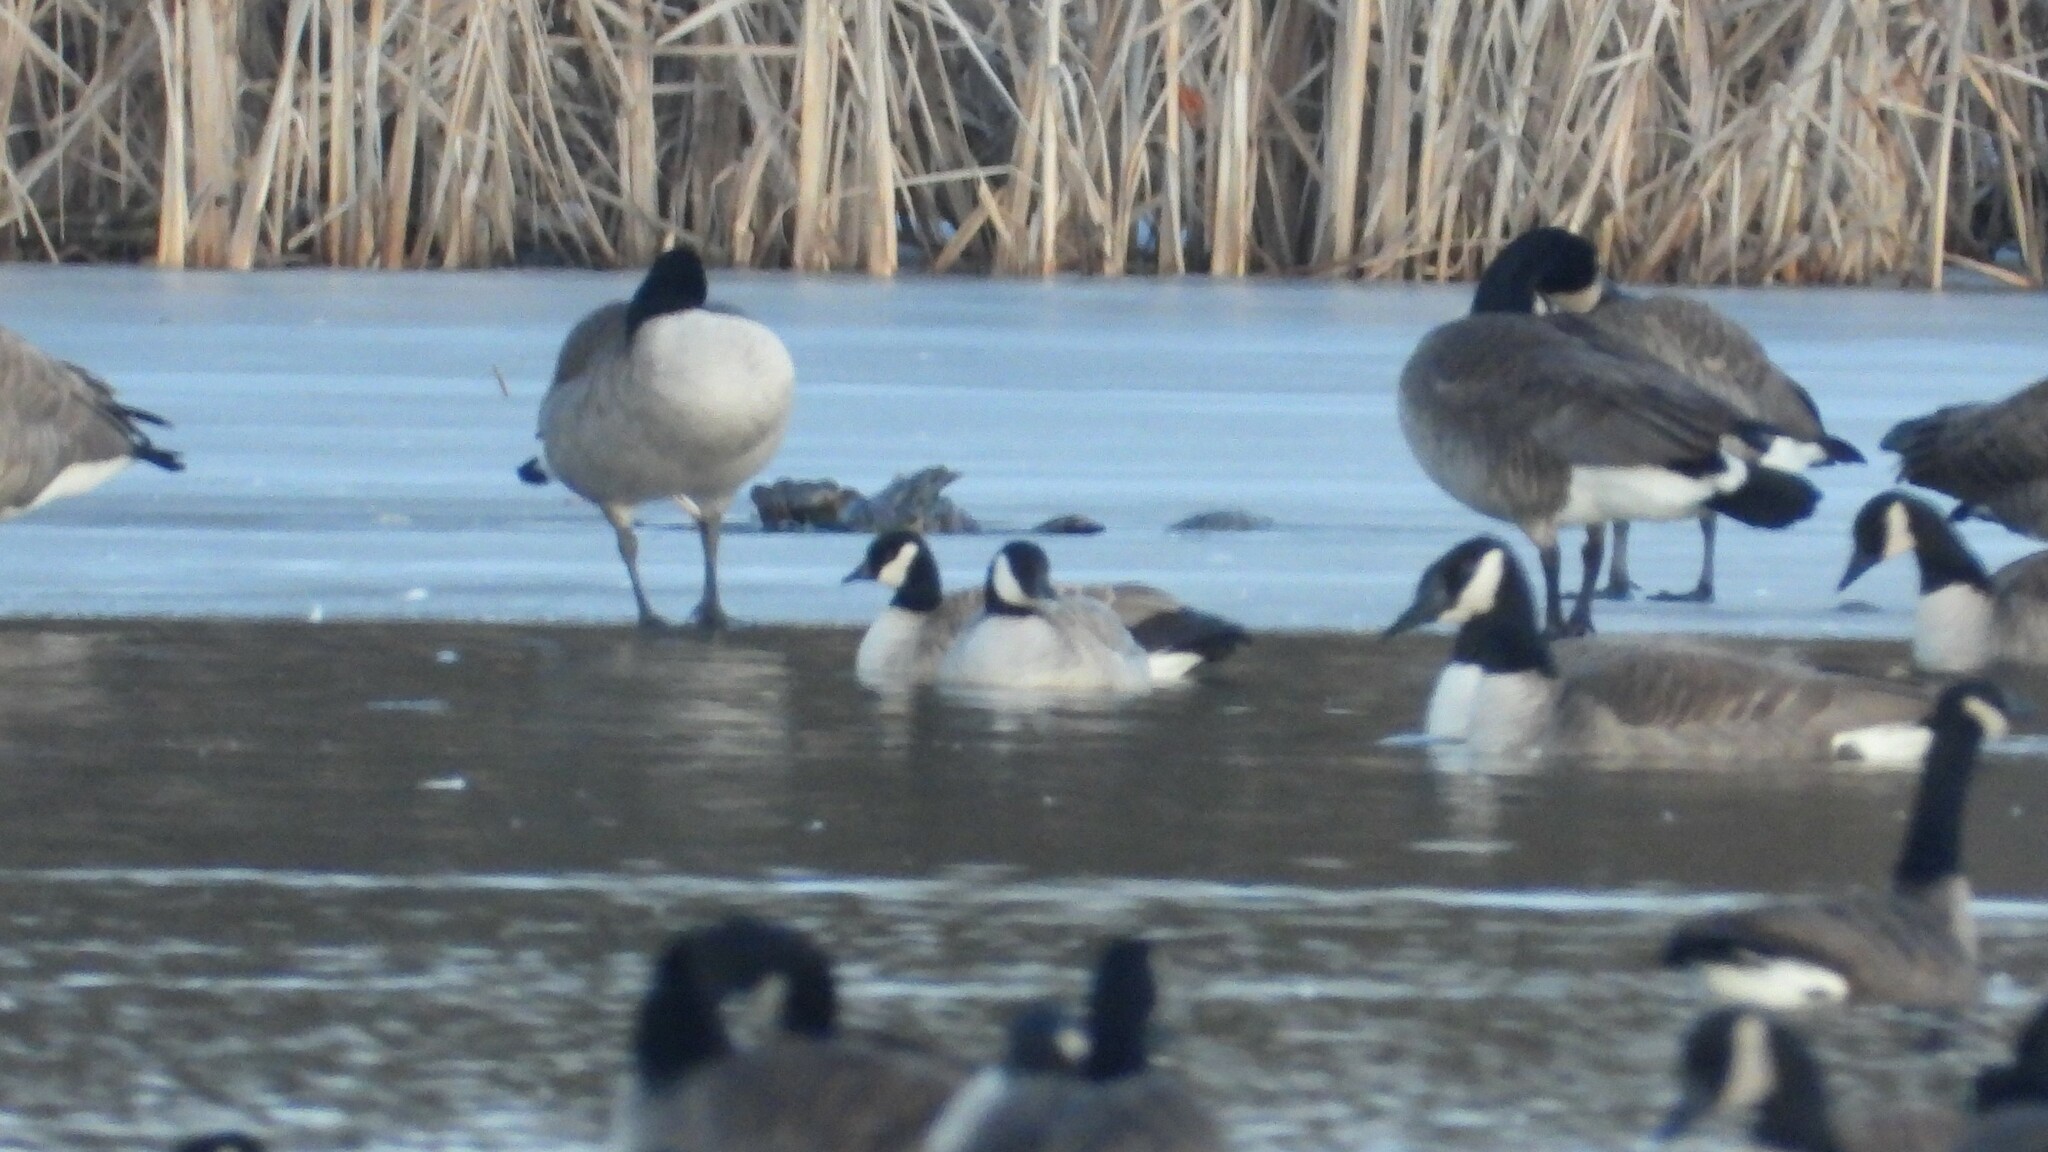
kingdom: Animalia
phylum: Chordata
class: Aves
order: Anseriformes
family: Anatidae
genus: Branta
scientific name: Branta hutchinsii
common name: Cackling goose
